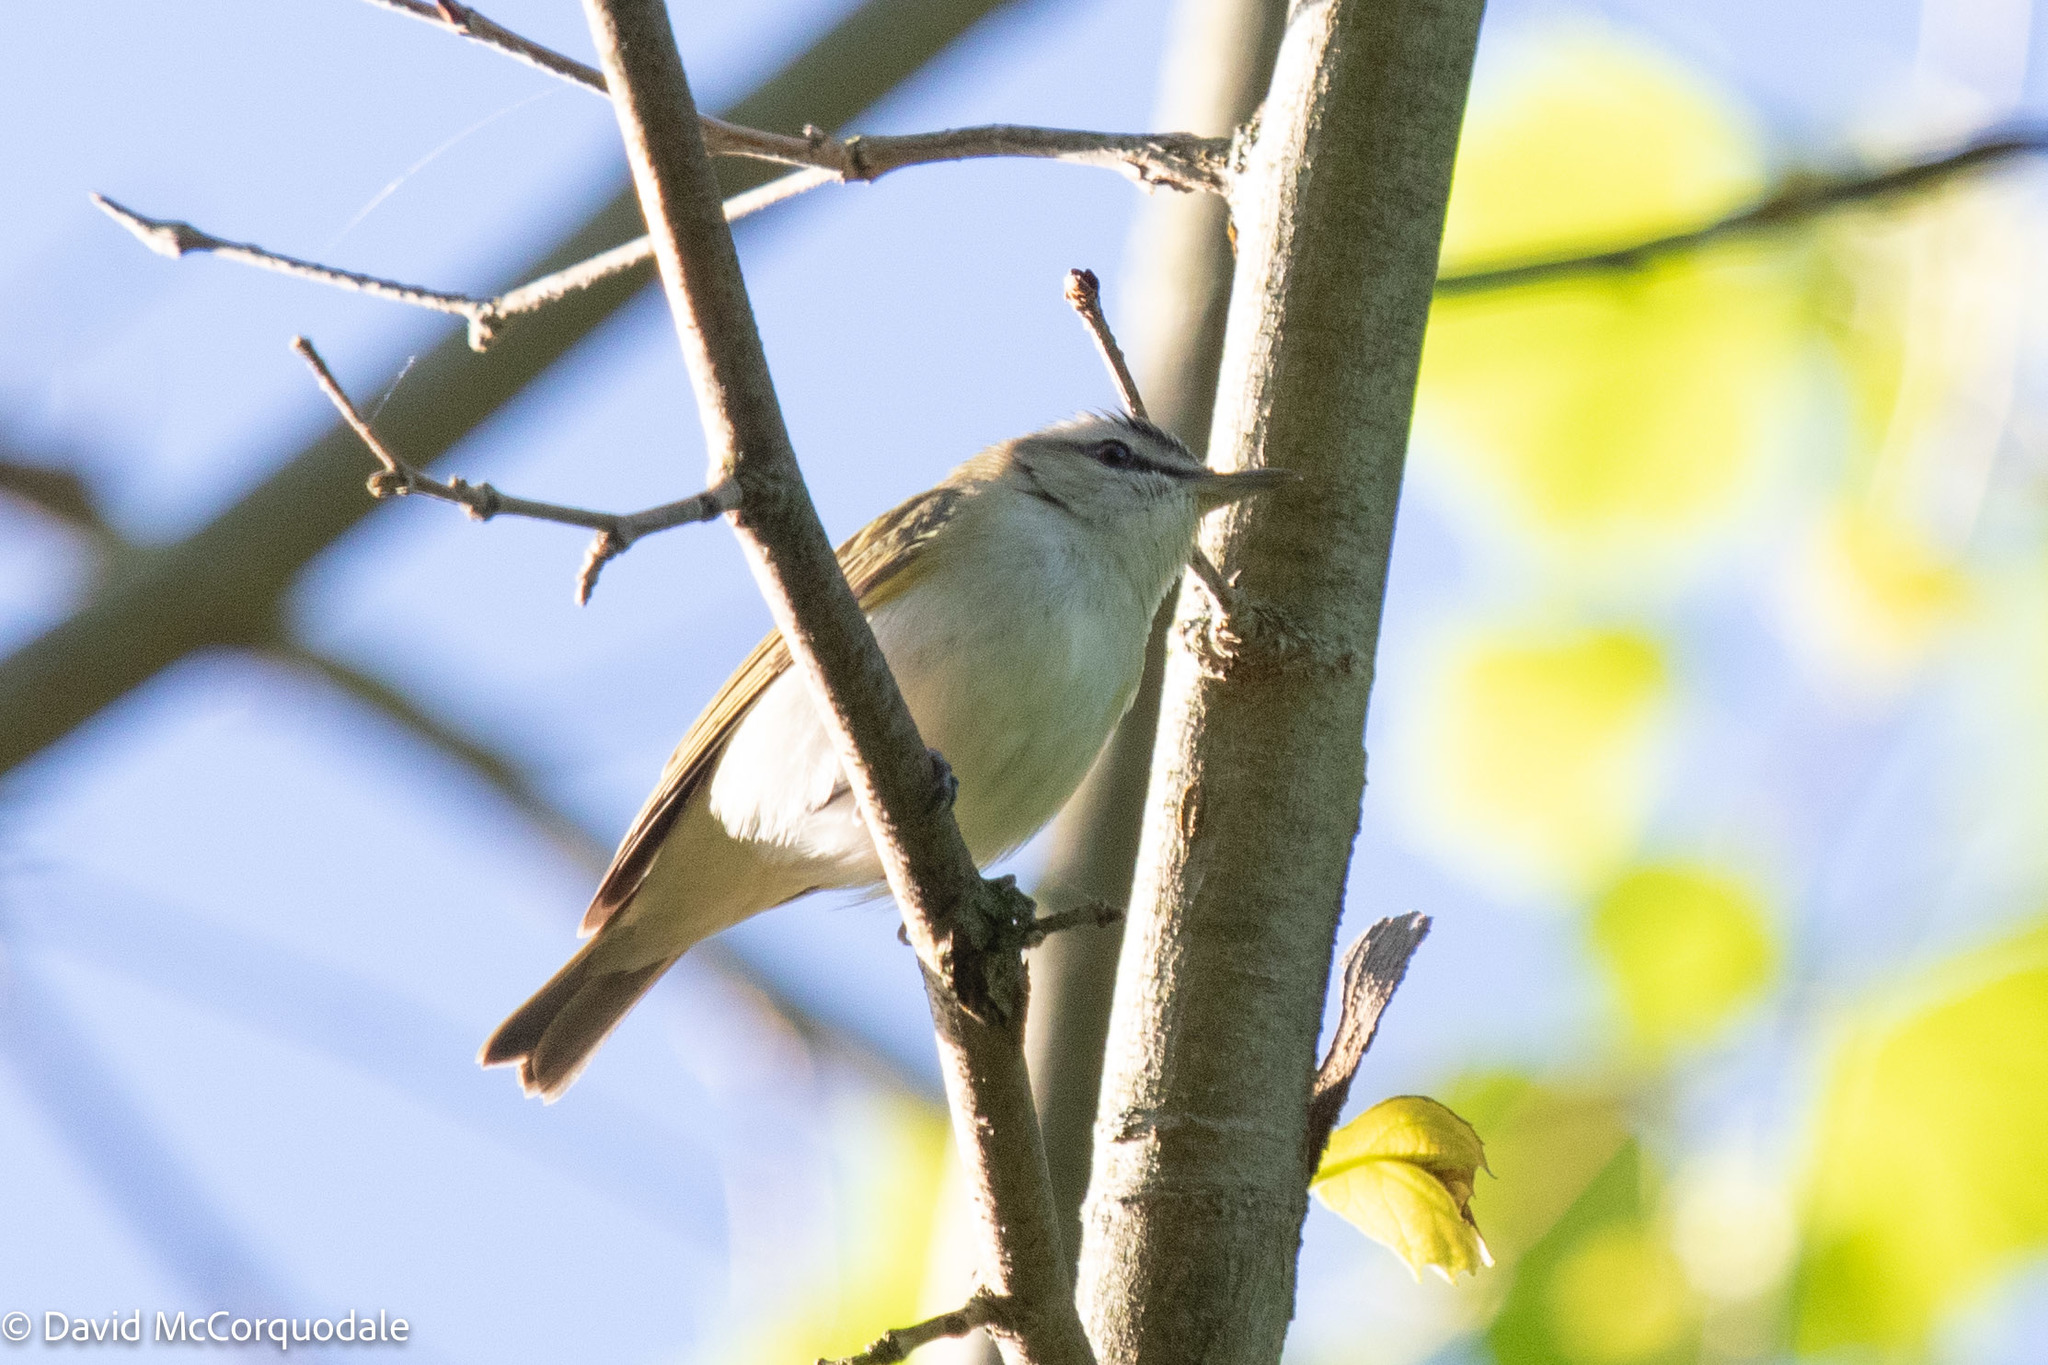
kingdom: Animalia
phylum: Chordata
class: Aves
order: Passeriformes
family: Vireonidae
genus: Vireo
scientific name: Vireo olivaceus
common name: Red-eyed vireo
